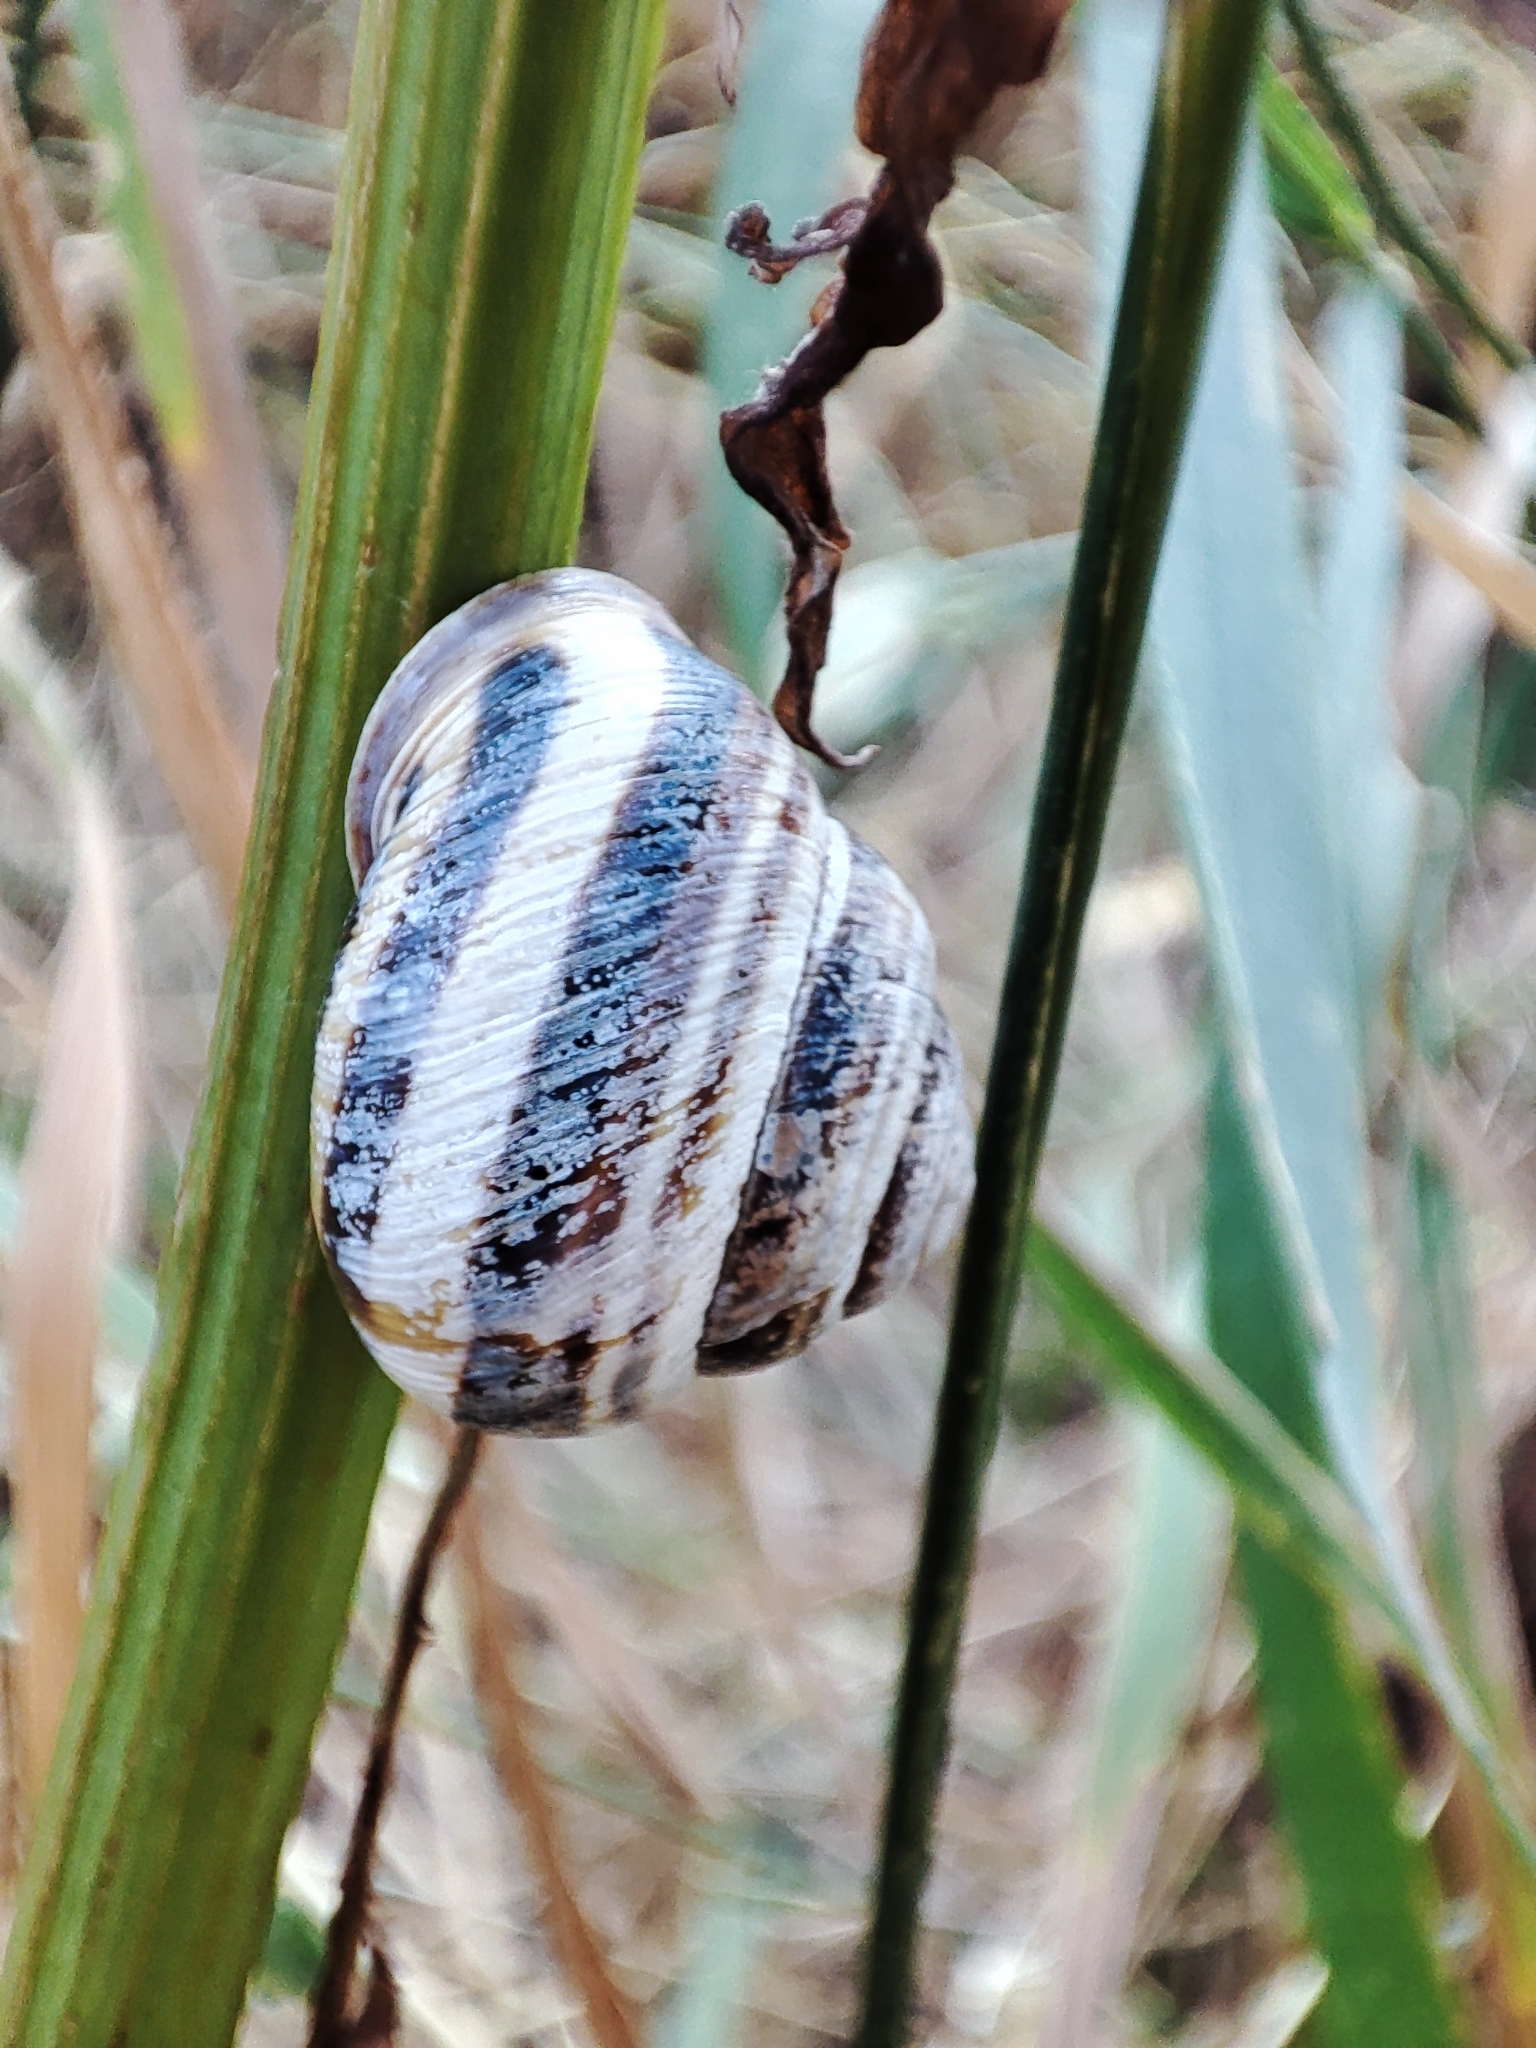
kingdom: Animalia
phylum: Mollusca
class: Gastropoda
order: Stylommatophora
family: Helicidae
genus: Caucasotachea
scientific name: Caucasotachea vindobonensis
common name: European helicid land snail
